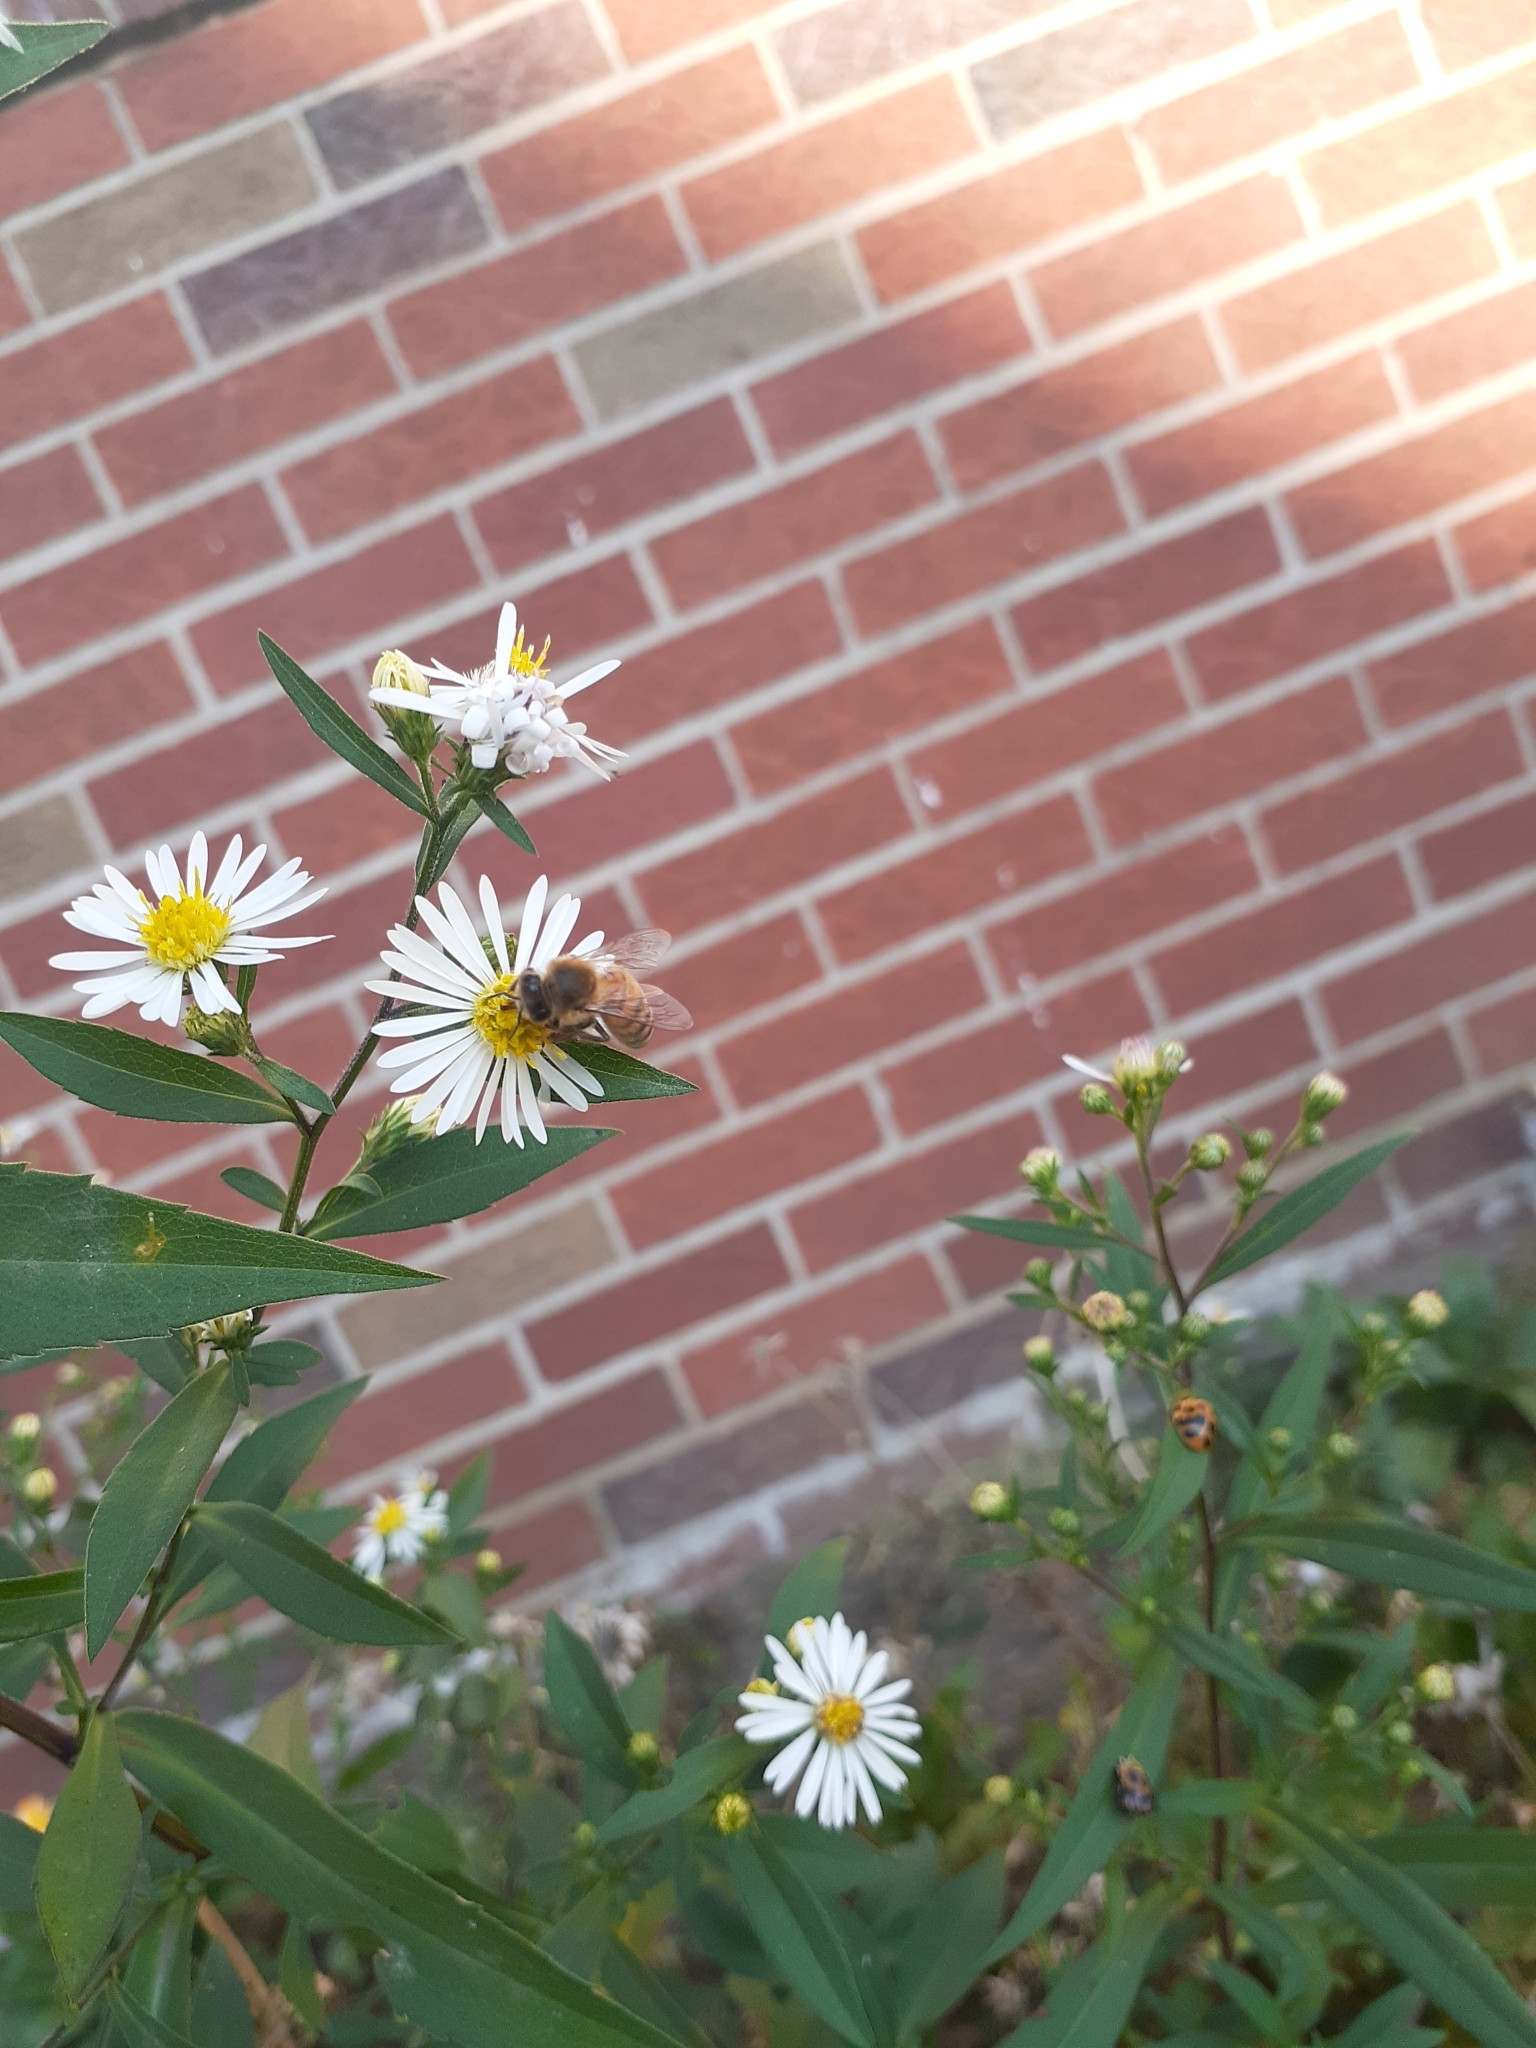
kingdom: Animalia
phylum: Arthropoda
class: Insecta
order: Hymenoptera
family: Apidae
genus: Apis
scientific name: Apis mellifera
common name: Honey bee
